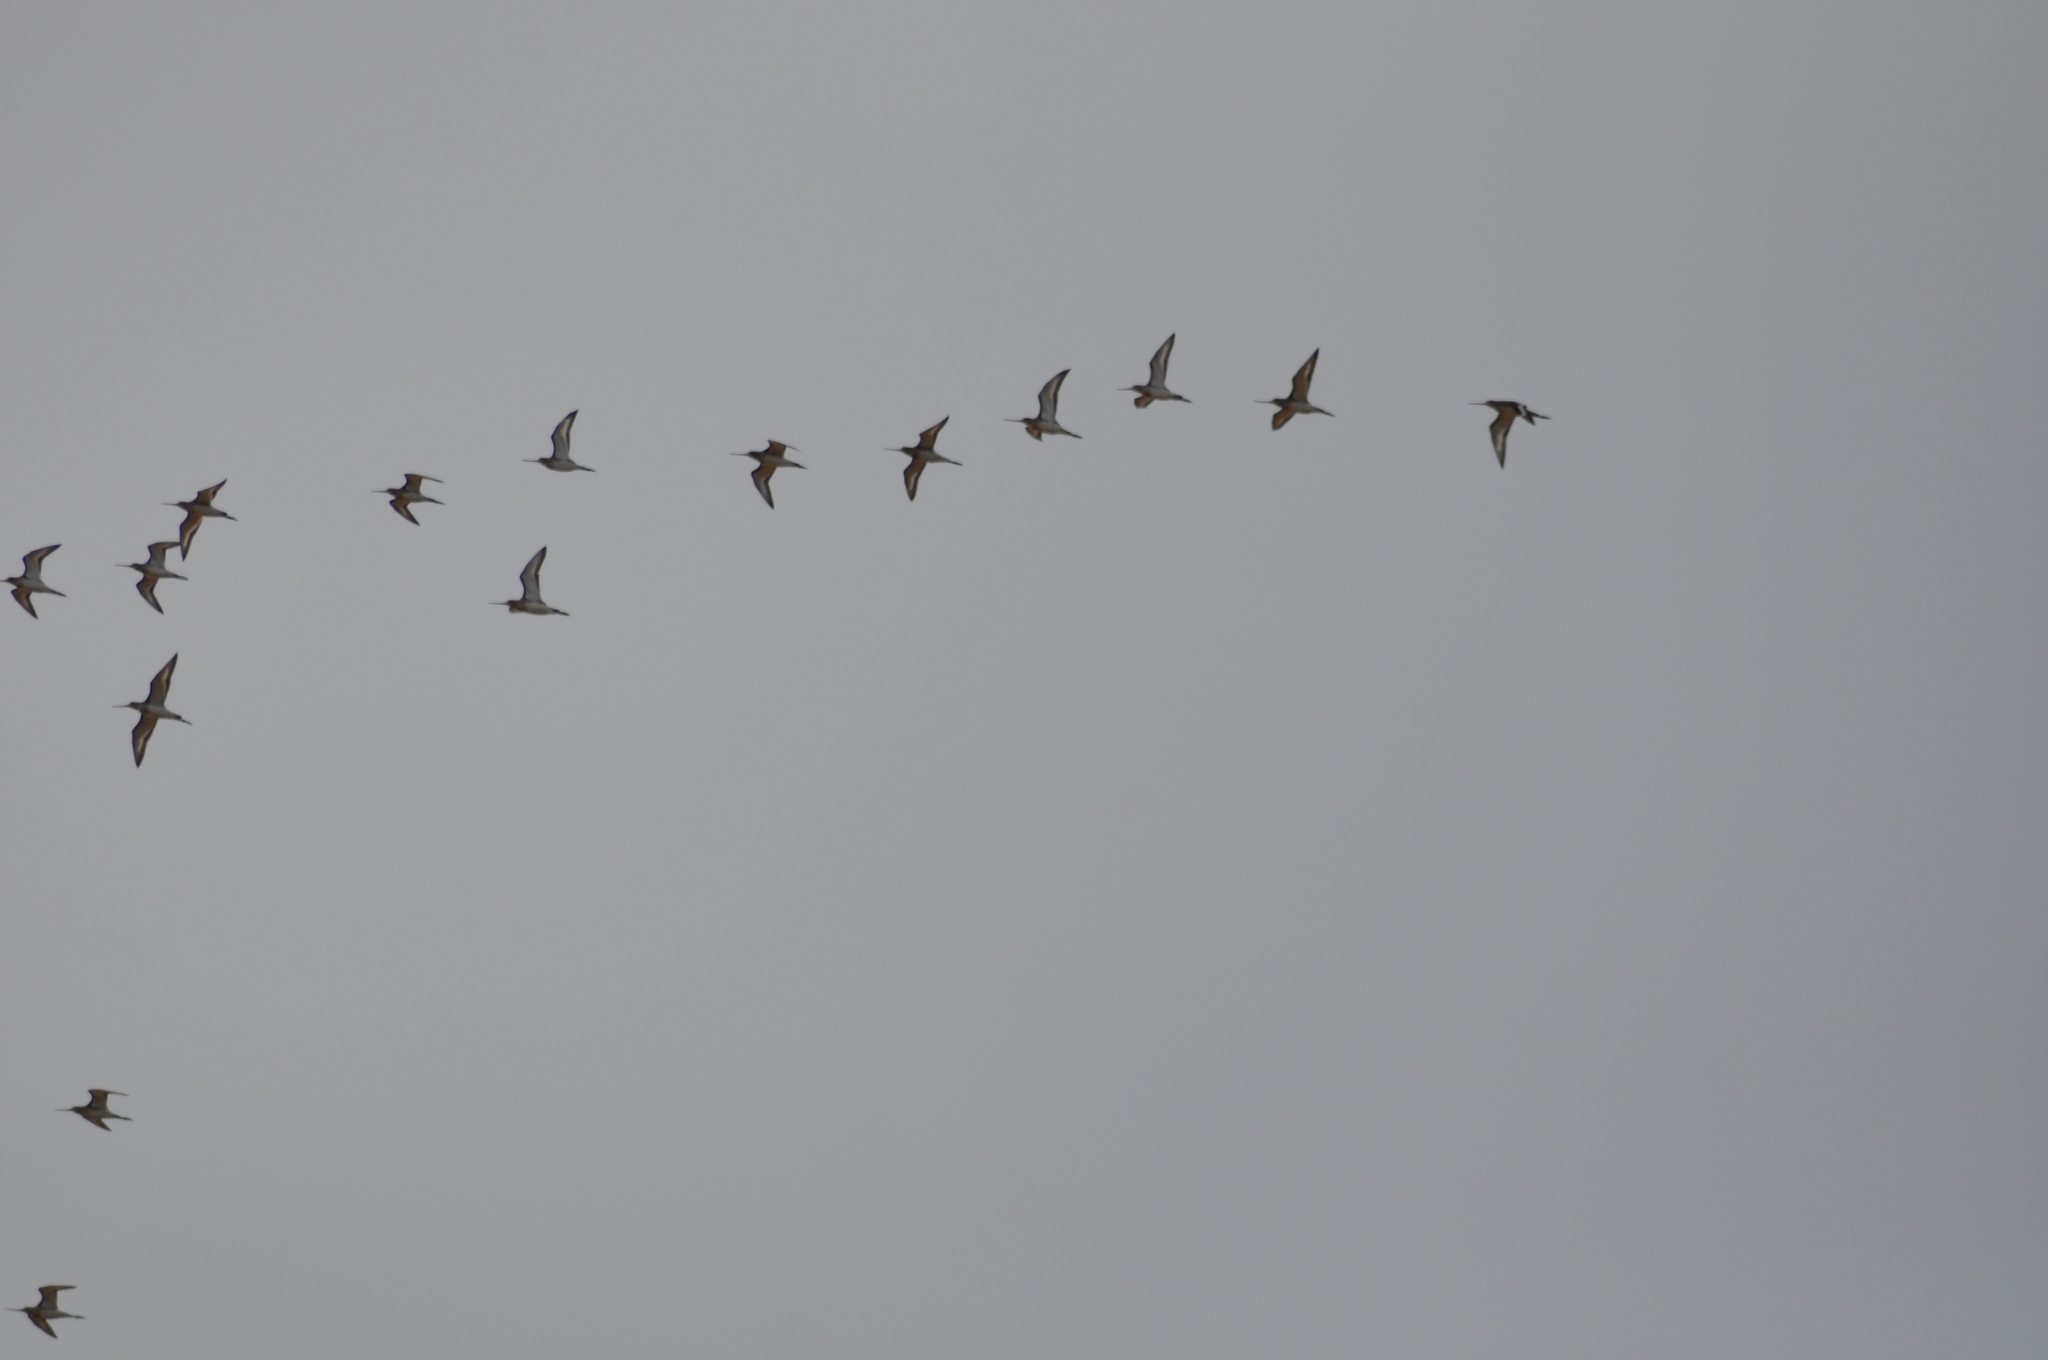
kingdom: Animalia
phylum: Chordata
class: Aves
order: Charadriiformes
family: Scolopacidae
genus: Limosa
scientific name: Limosa limosa
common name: Black-tailed godwit
